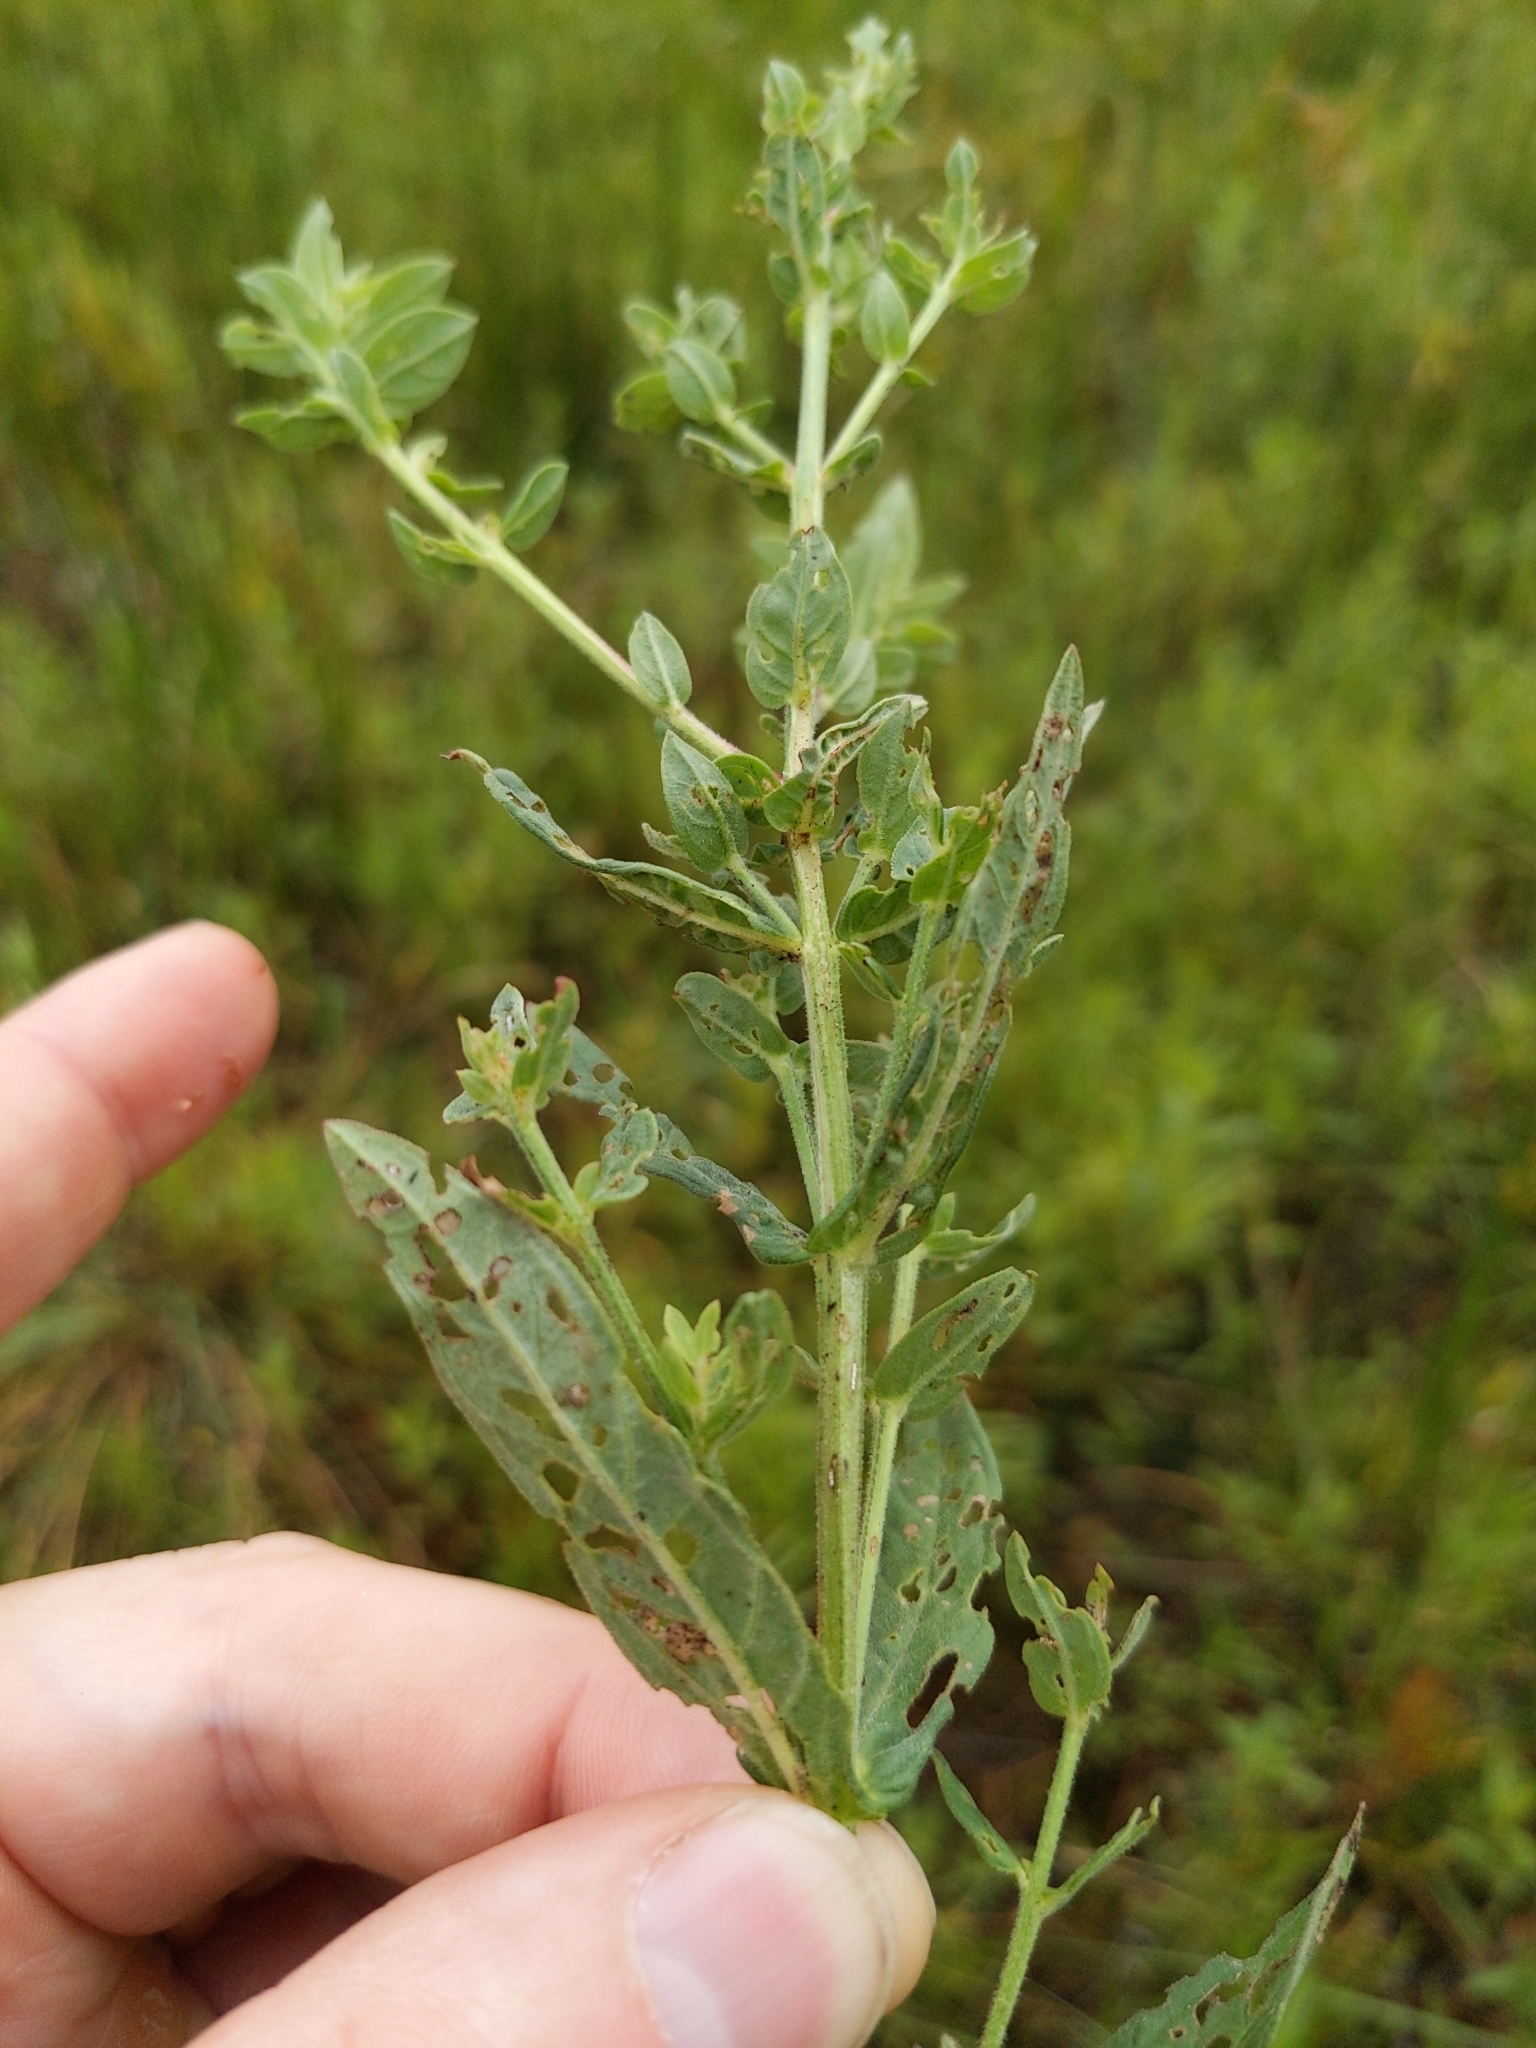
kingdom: Plantae
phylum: Tracheophyta
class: Magnoliopsida
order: Myrtales
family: Lythraceae
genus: Lythrum
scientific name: Lythrum salicaria
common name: Purple loosestrife
